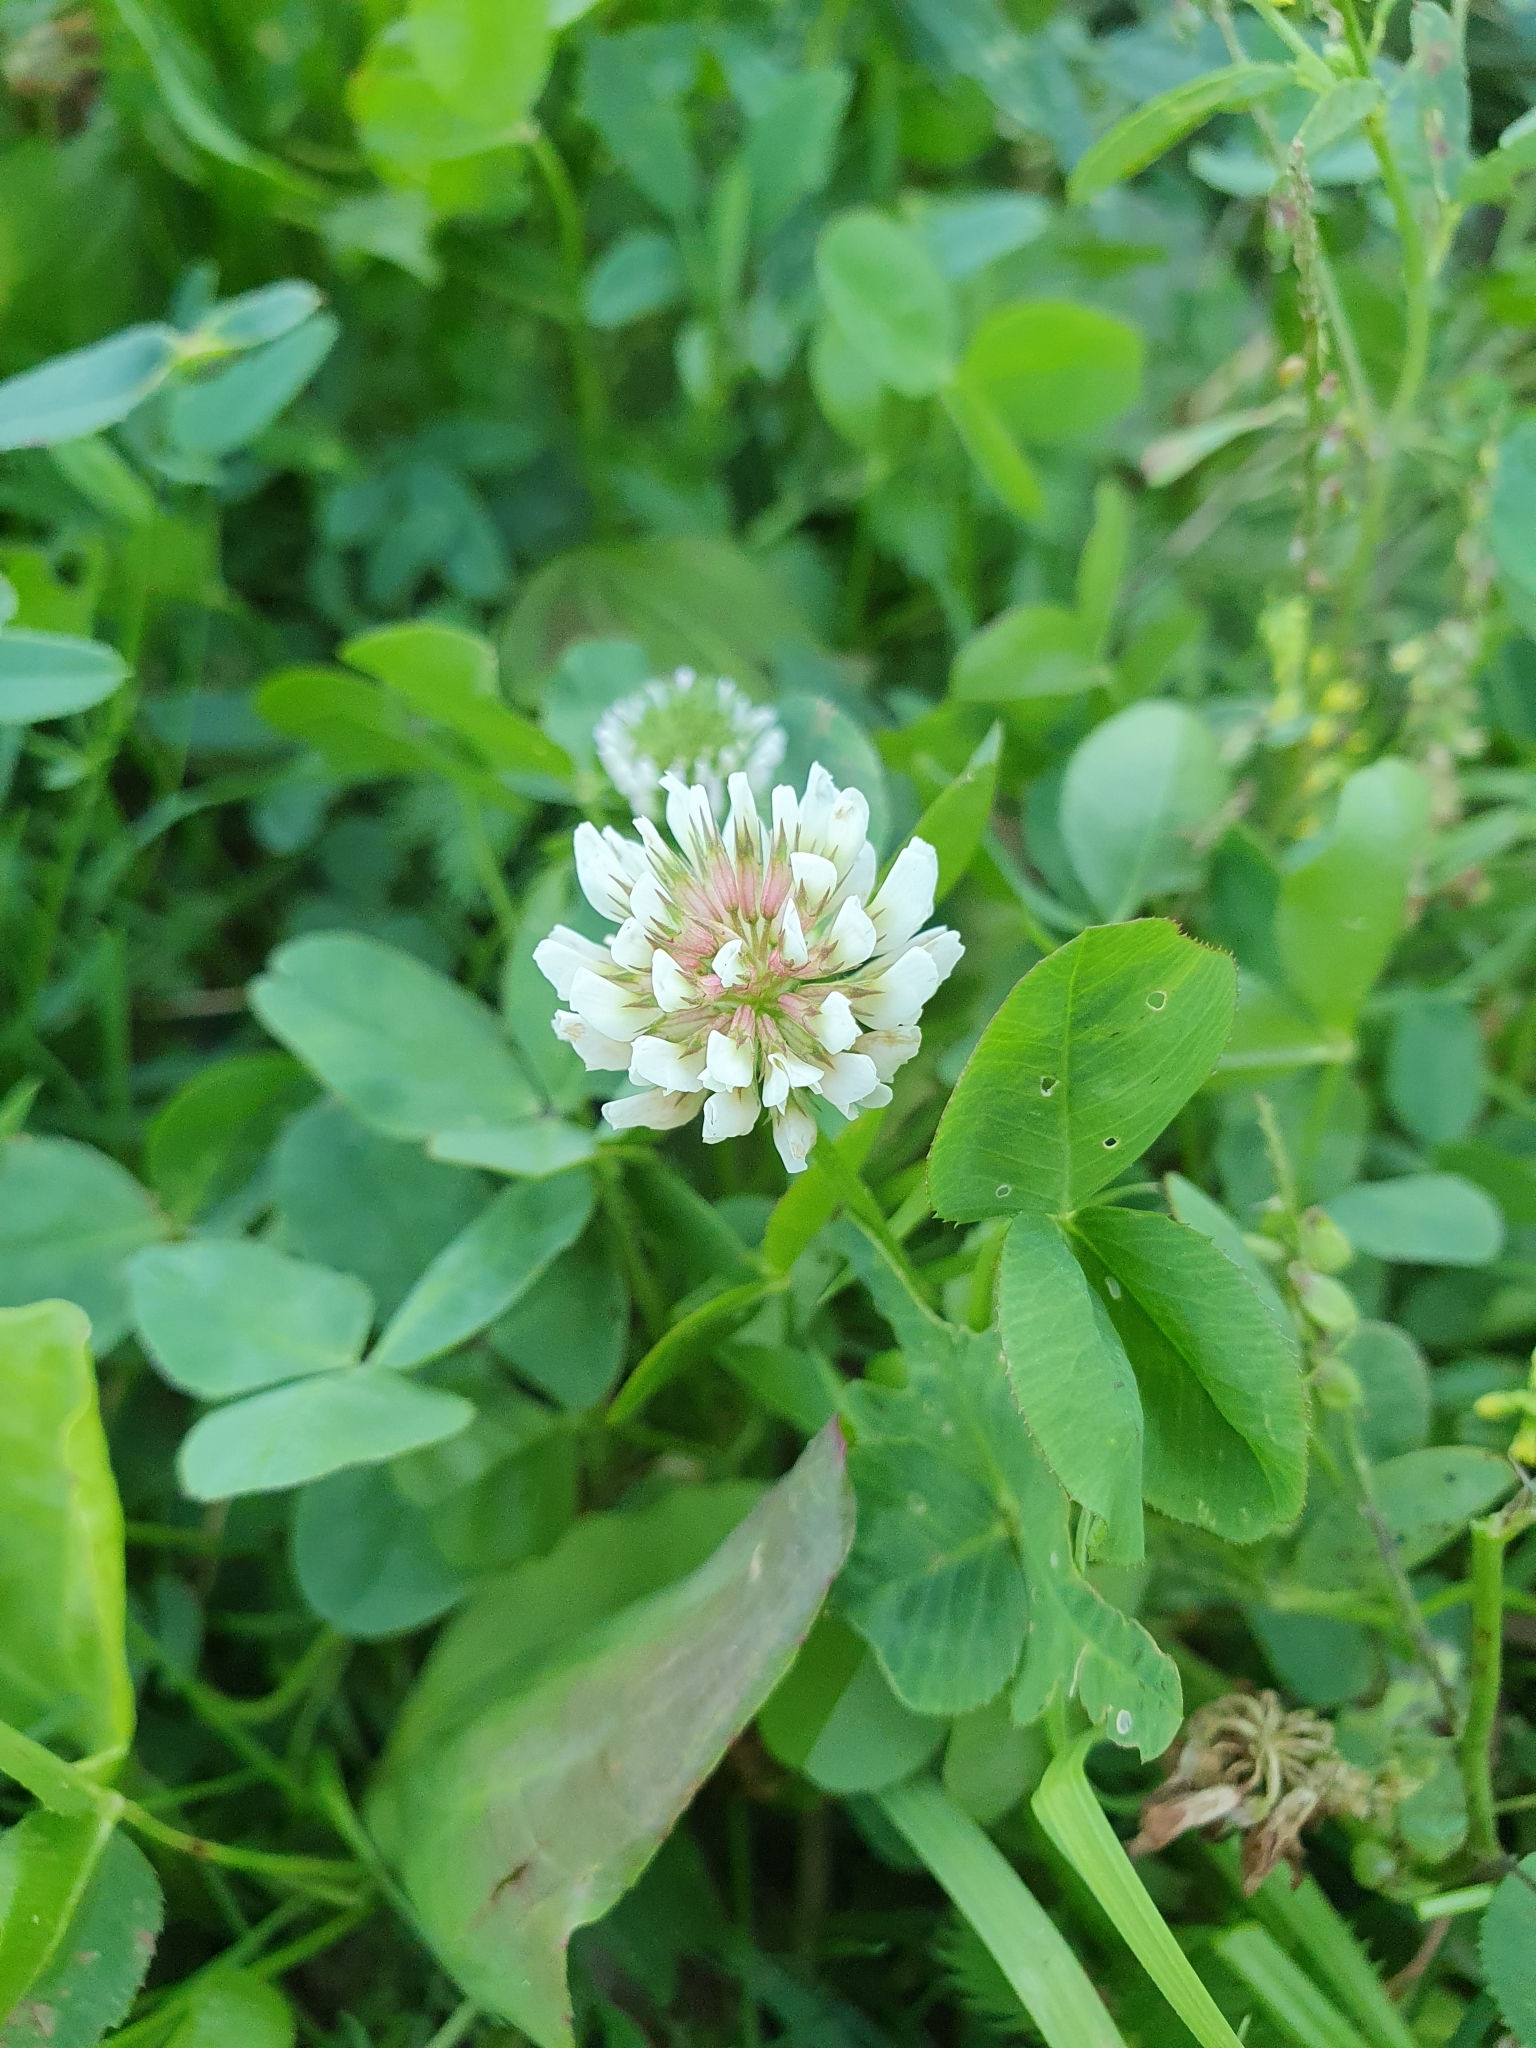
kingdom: Plantae
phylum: Tracheophyta
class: Magnoliopsida
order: Fabales
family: Fabaceae
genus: Trifolium
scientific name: Trifolium repens
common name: White clover
